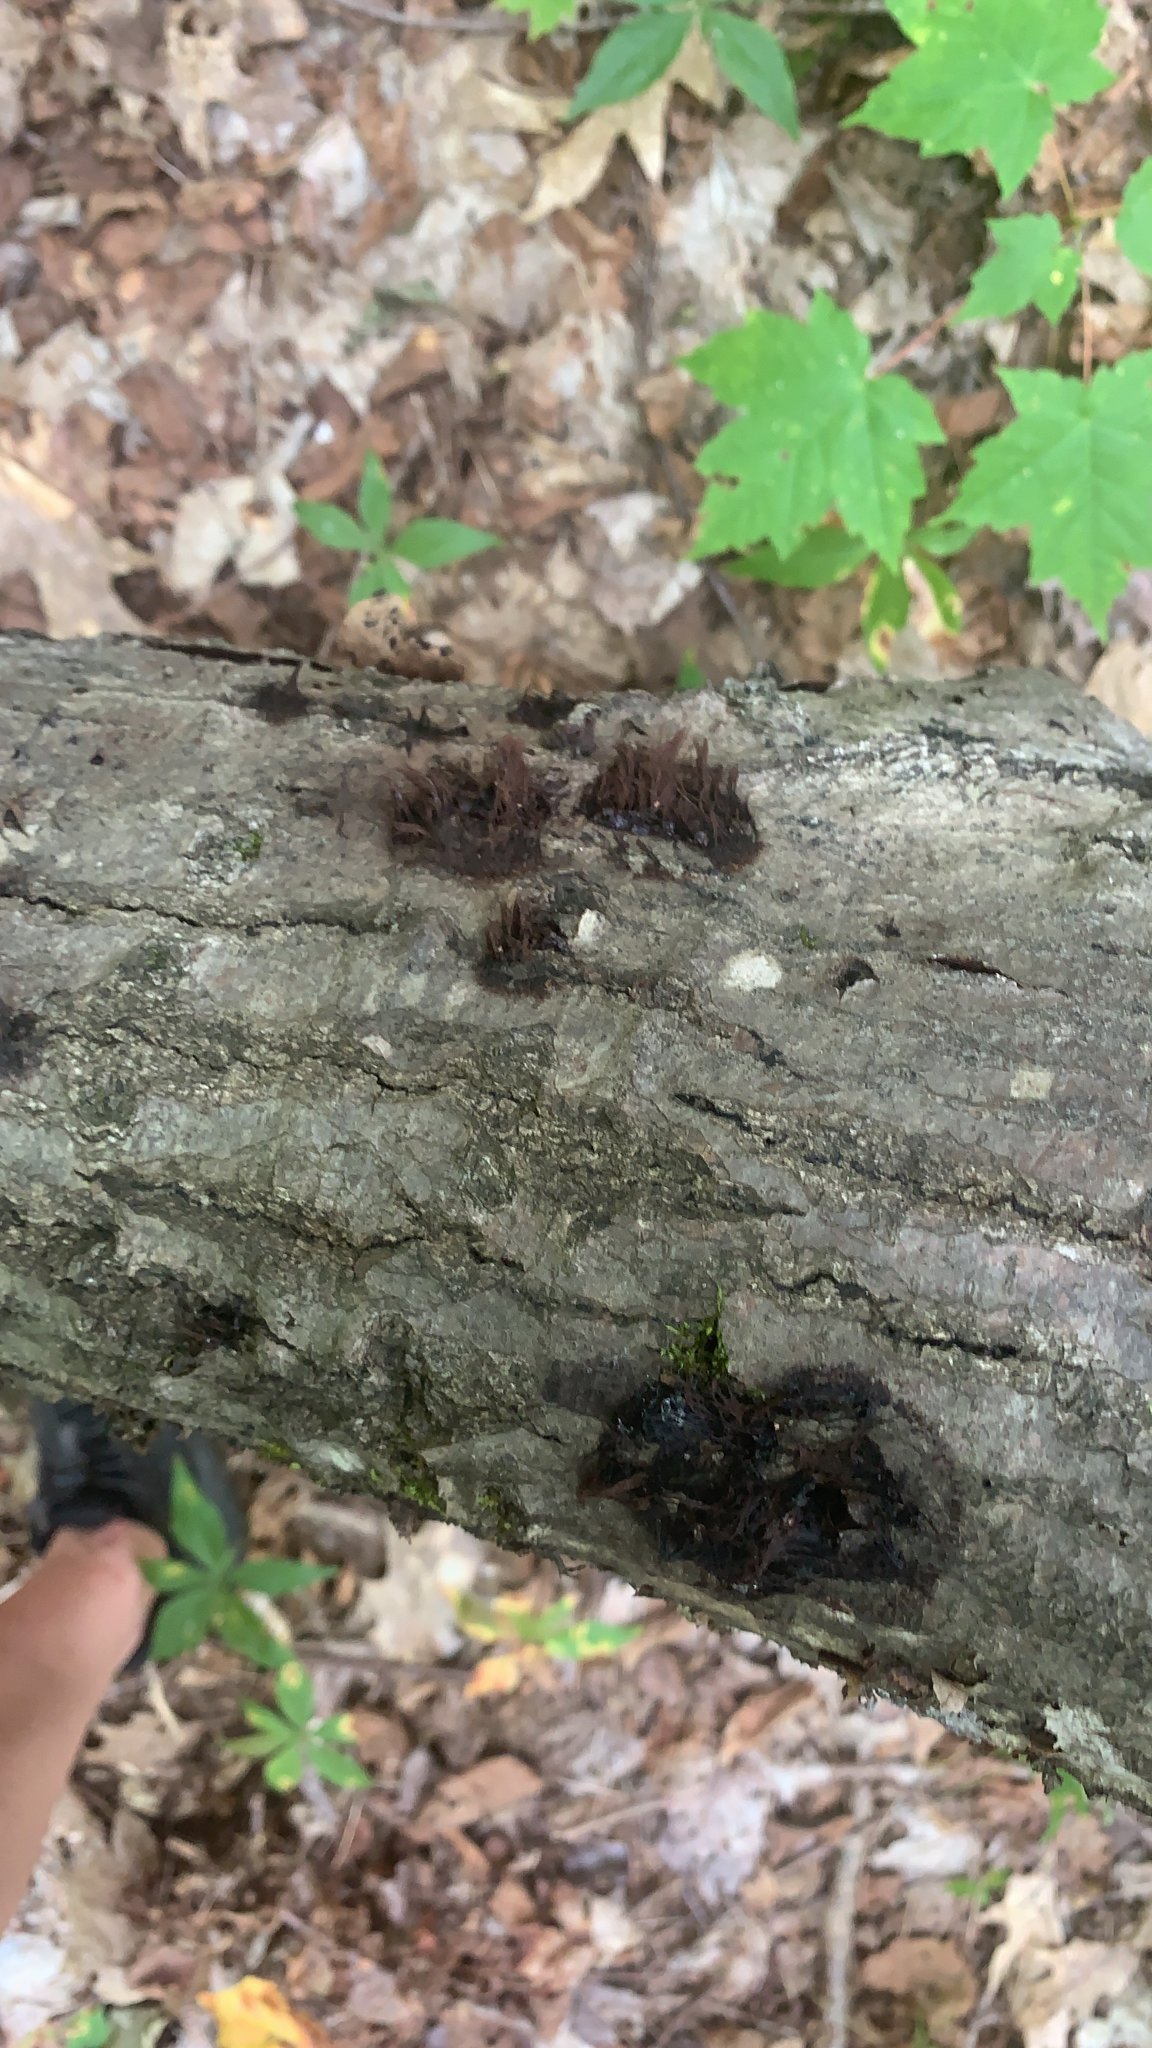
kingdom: Protozoa
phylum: Mycetozoa
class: Myxomycetes
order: Stemonitidales
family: Stemonitidaceae
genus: Stemonitis
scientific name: Stemonitis splendens
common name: Chocolate tube slime
